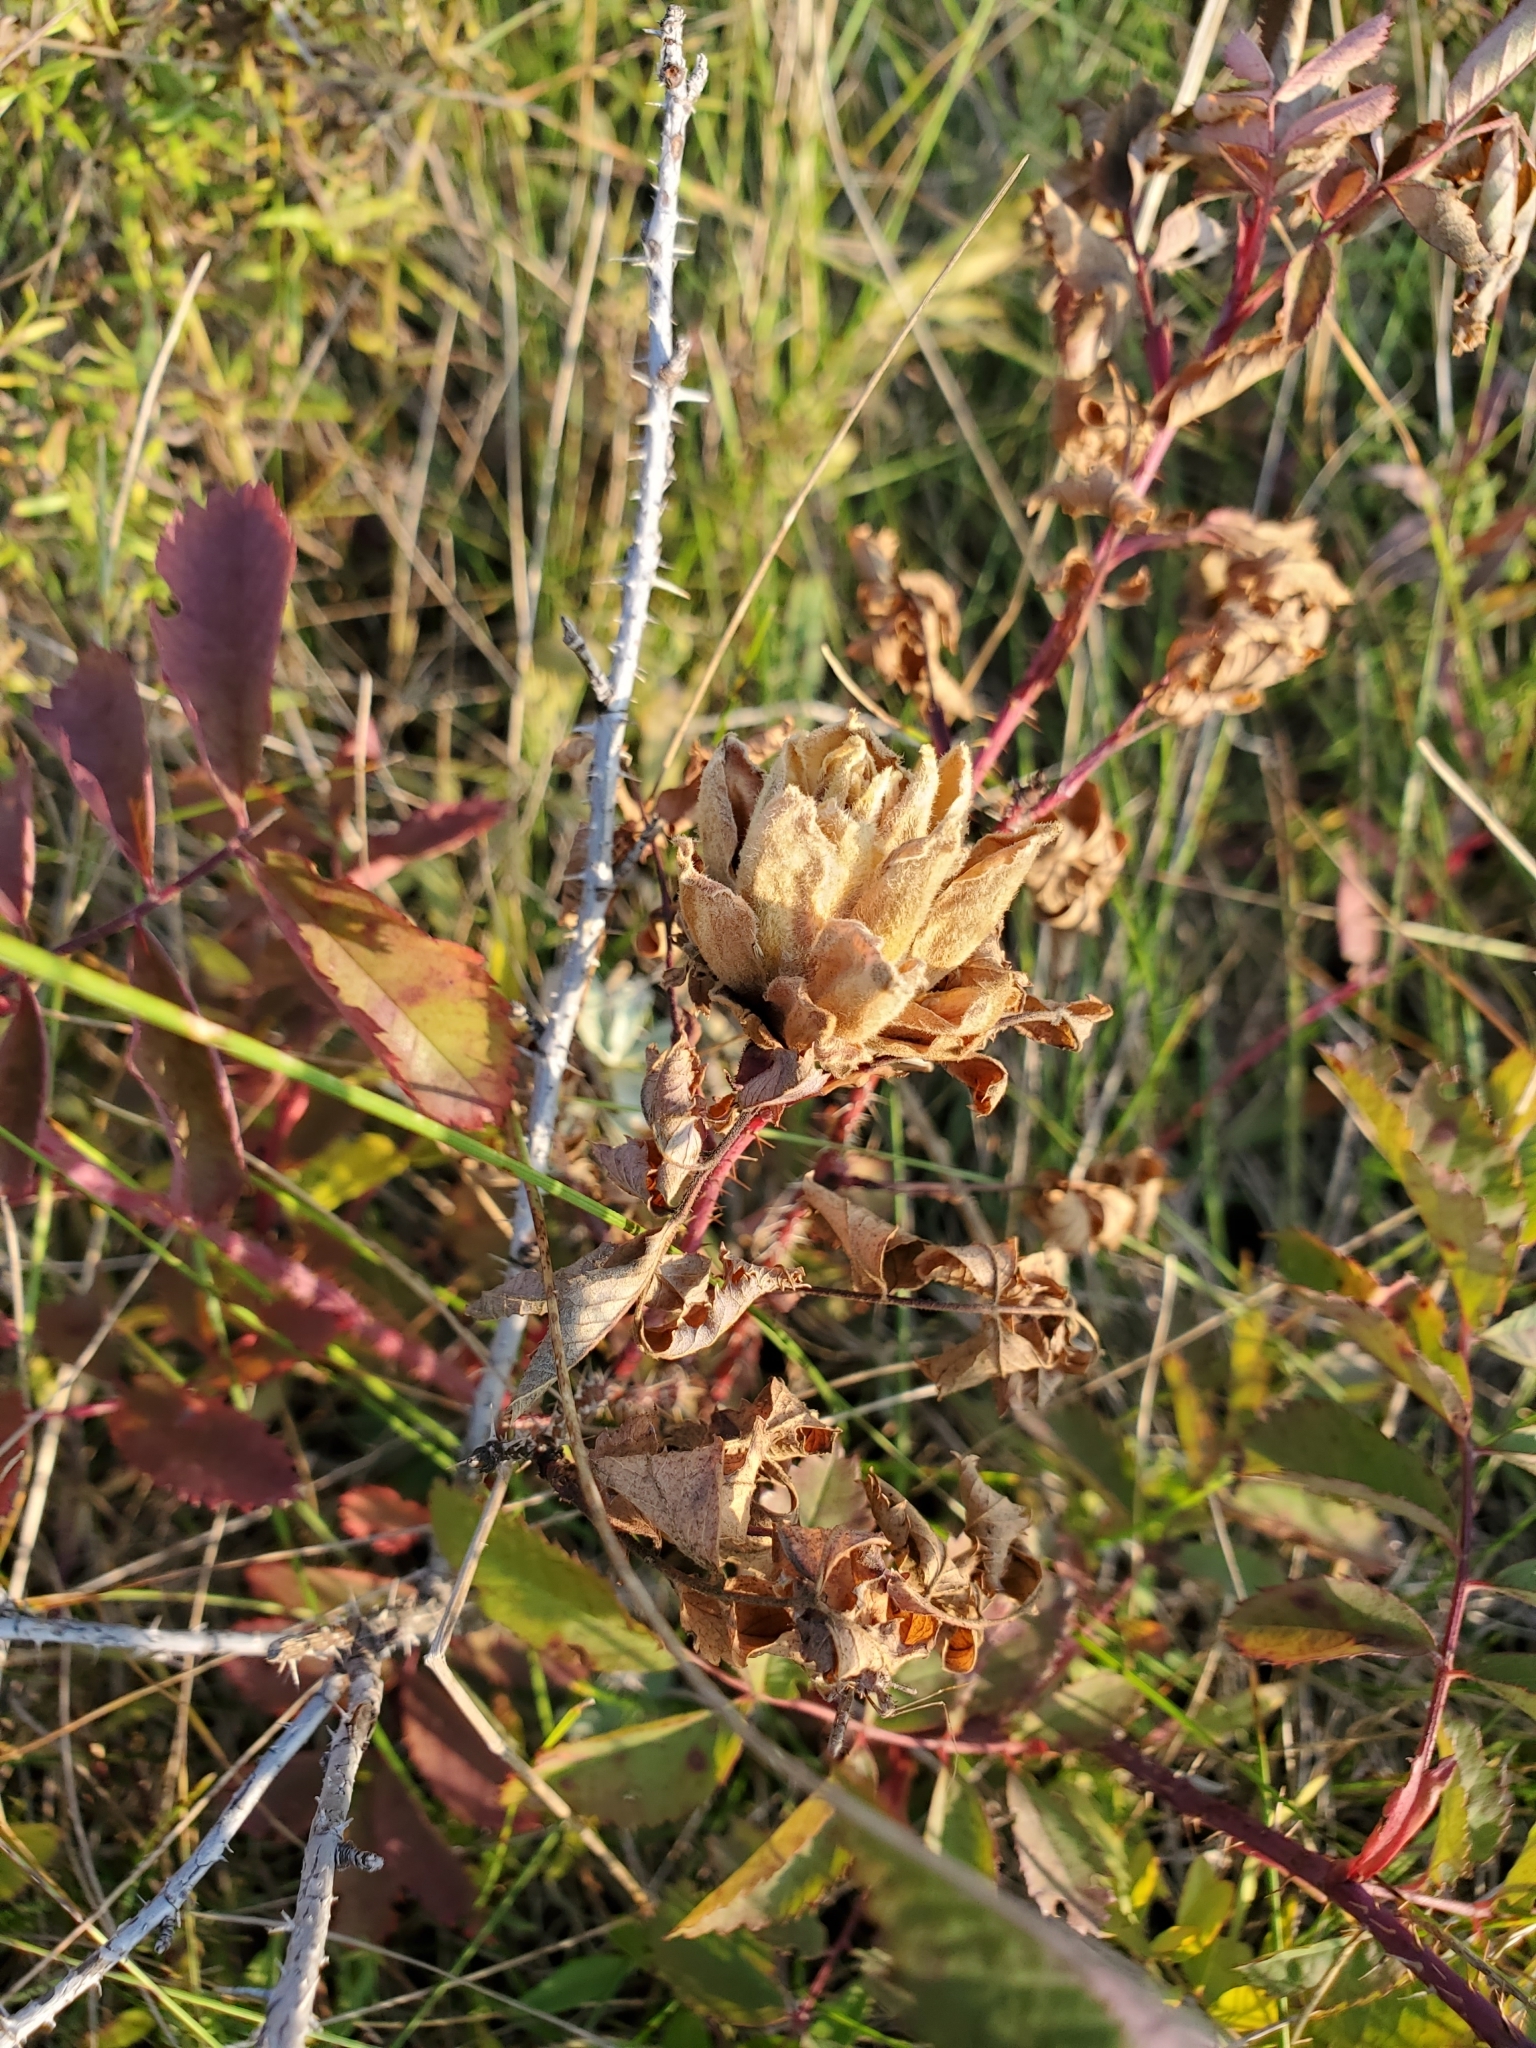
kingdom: Animalia
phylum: Arthropoda
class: Insecta
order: Diptera
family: Cecidomyiidae
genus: Rabdophaga
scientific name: Rabdophaga rosacea
